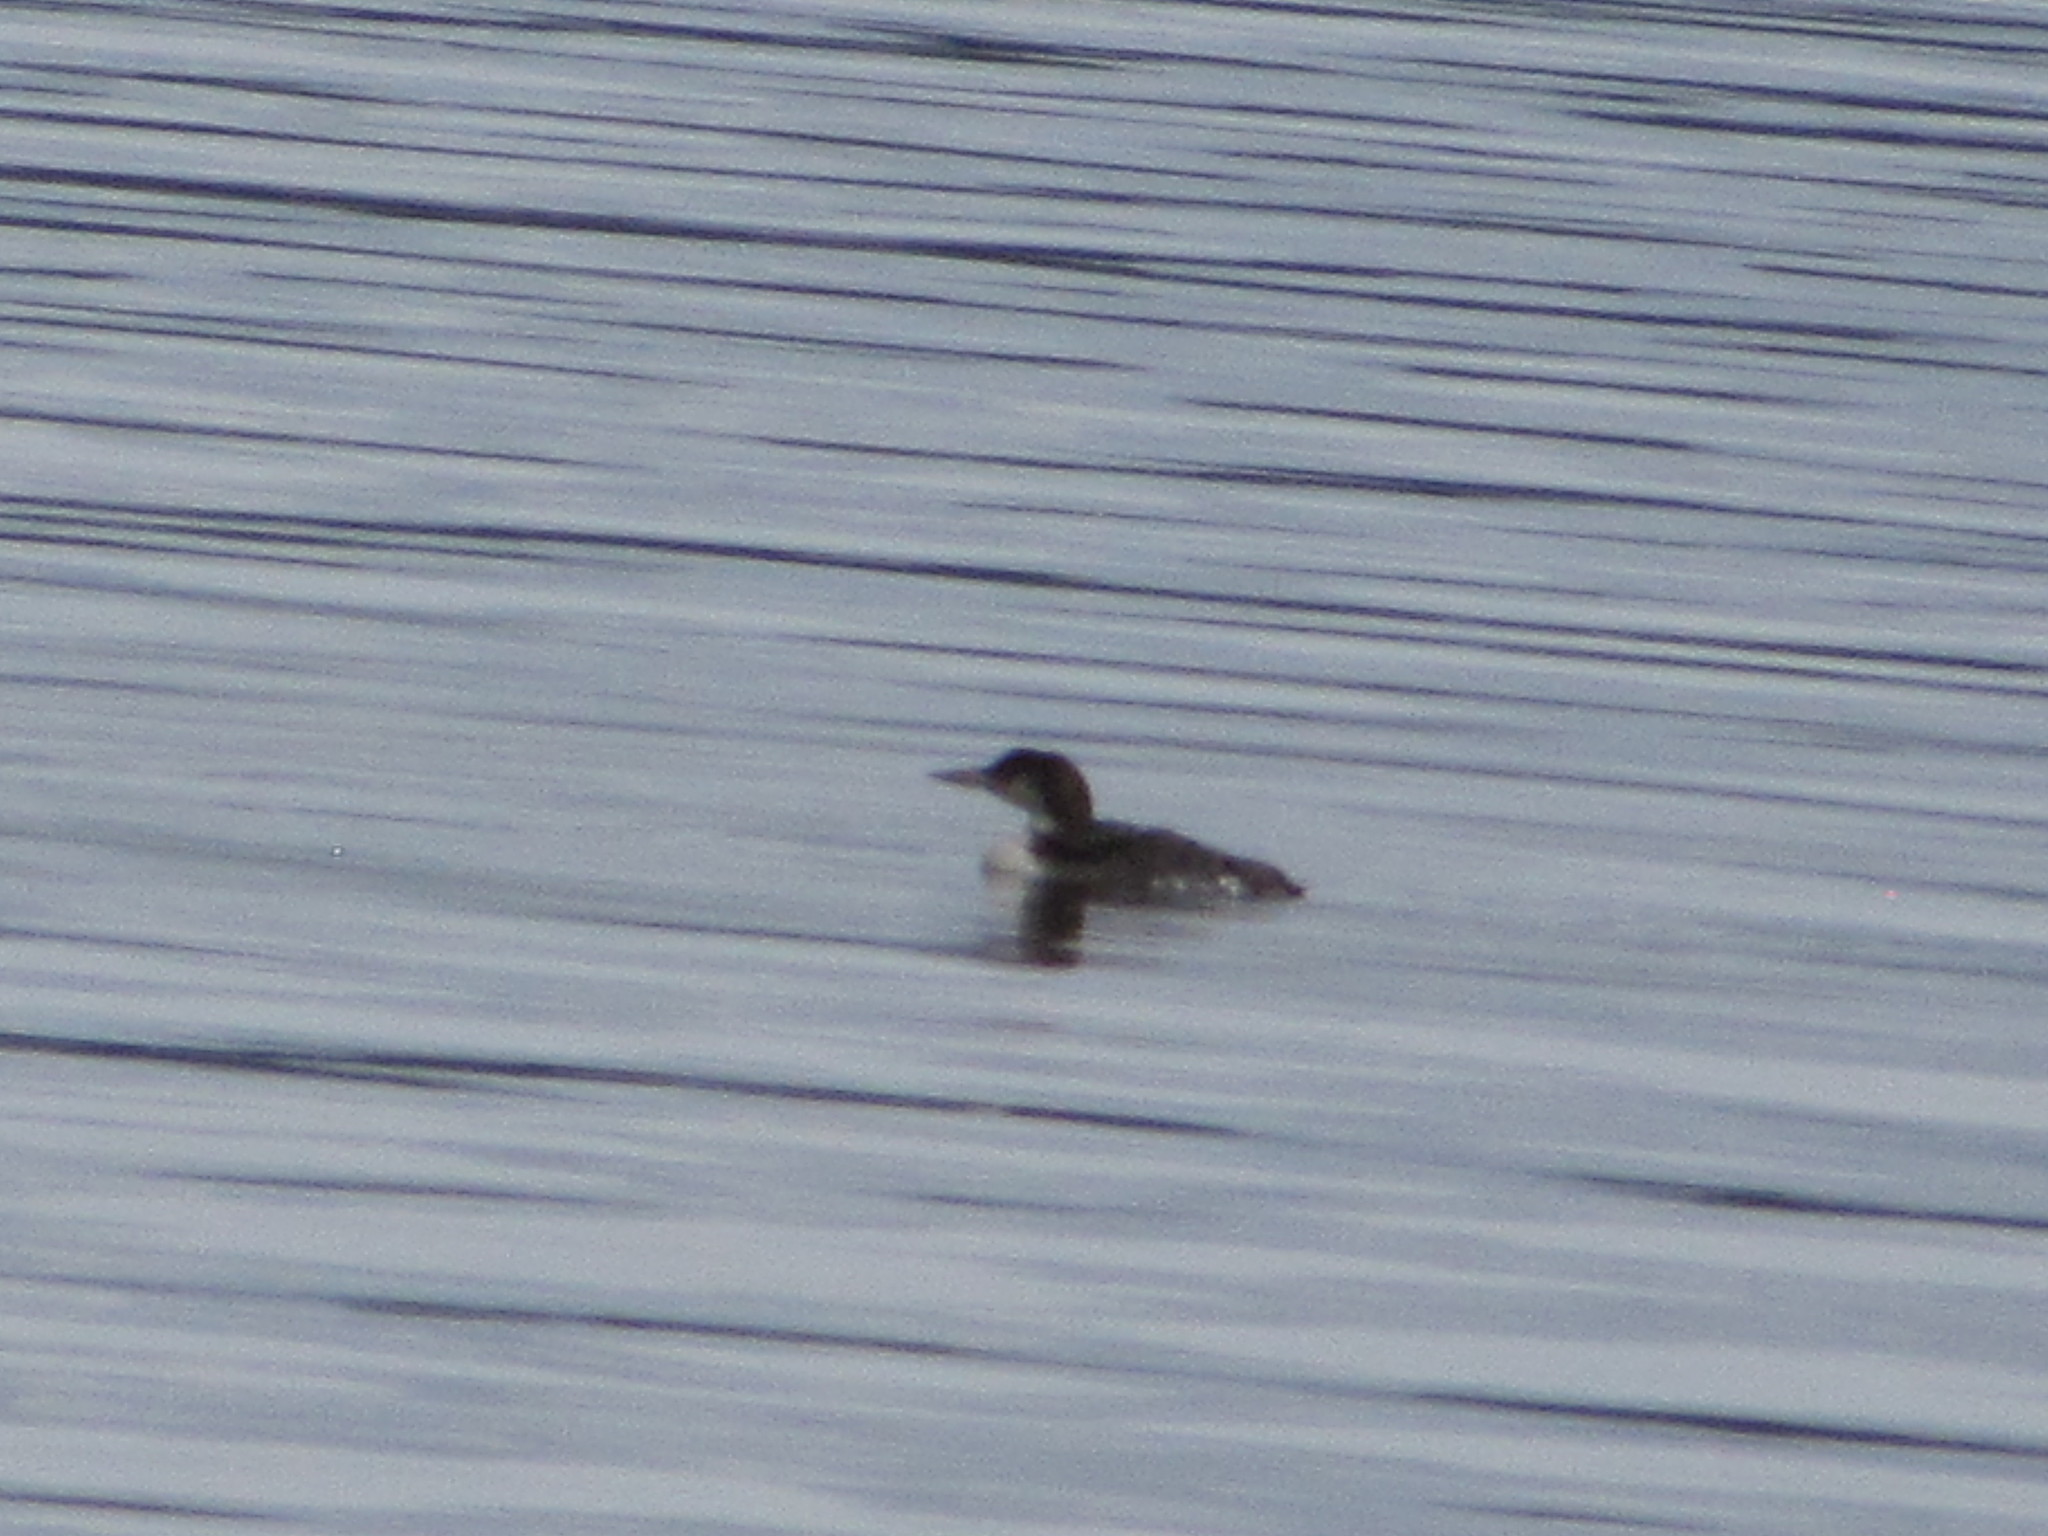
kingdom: Animalia
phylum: Chordata
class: Aves
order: Gaviiformes
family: Gaviidae
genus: Gavia
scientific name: Gavia immer
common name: Common loon
